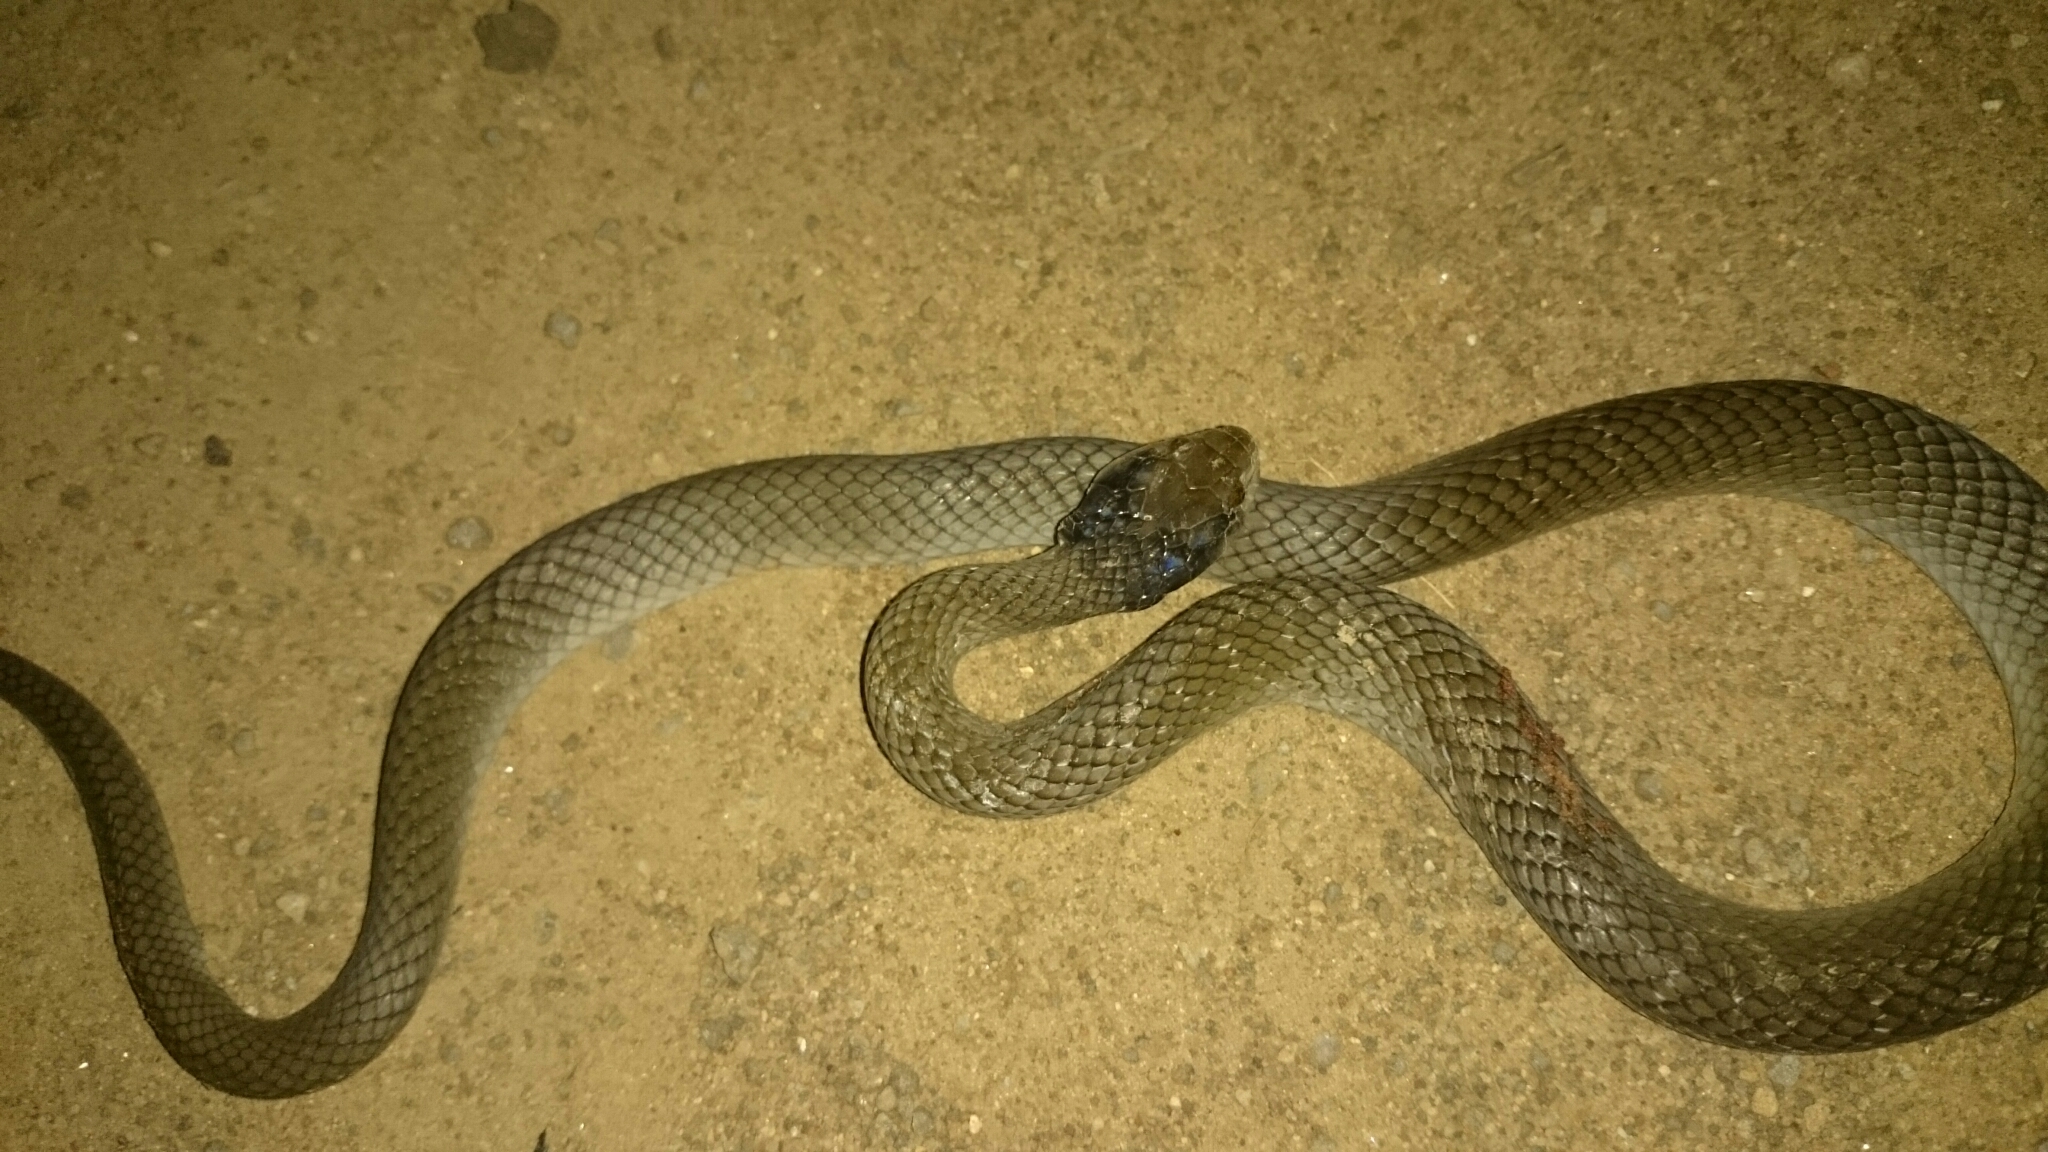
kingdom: Animalia
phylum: Chordata
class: Squamata
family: Colubridae
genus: Crotaphopeltis
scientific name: Crotaphopeltis hotamboeia
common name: Red-lipped snake
